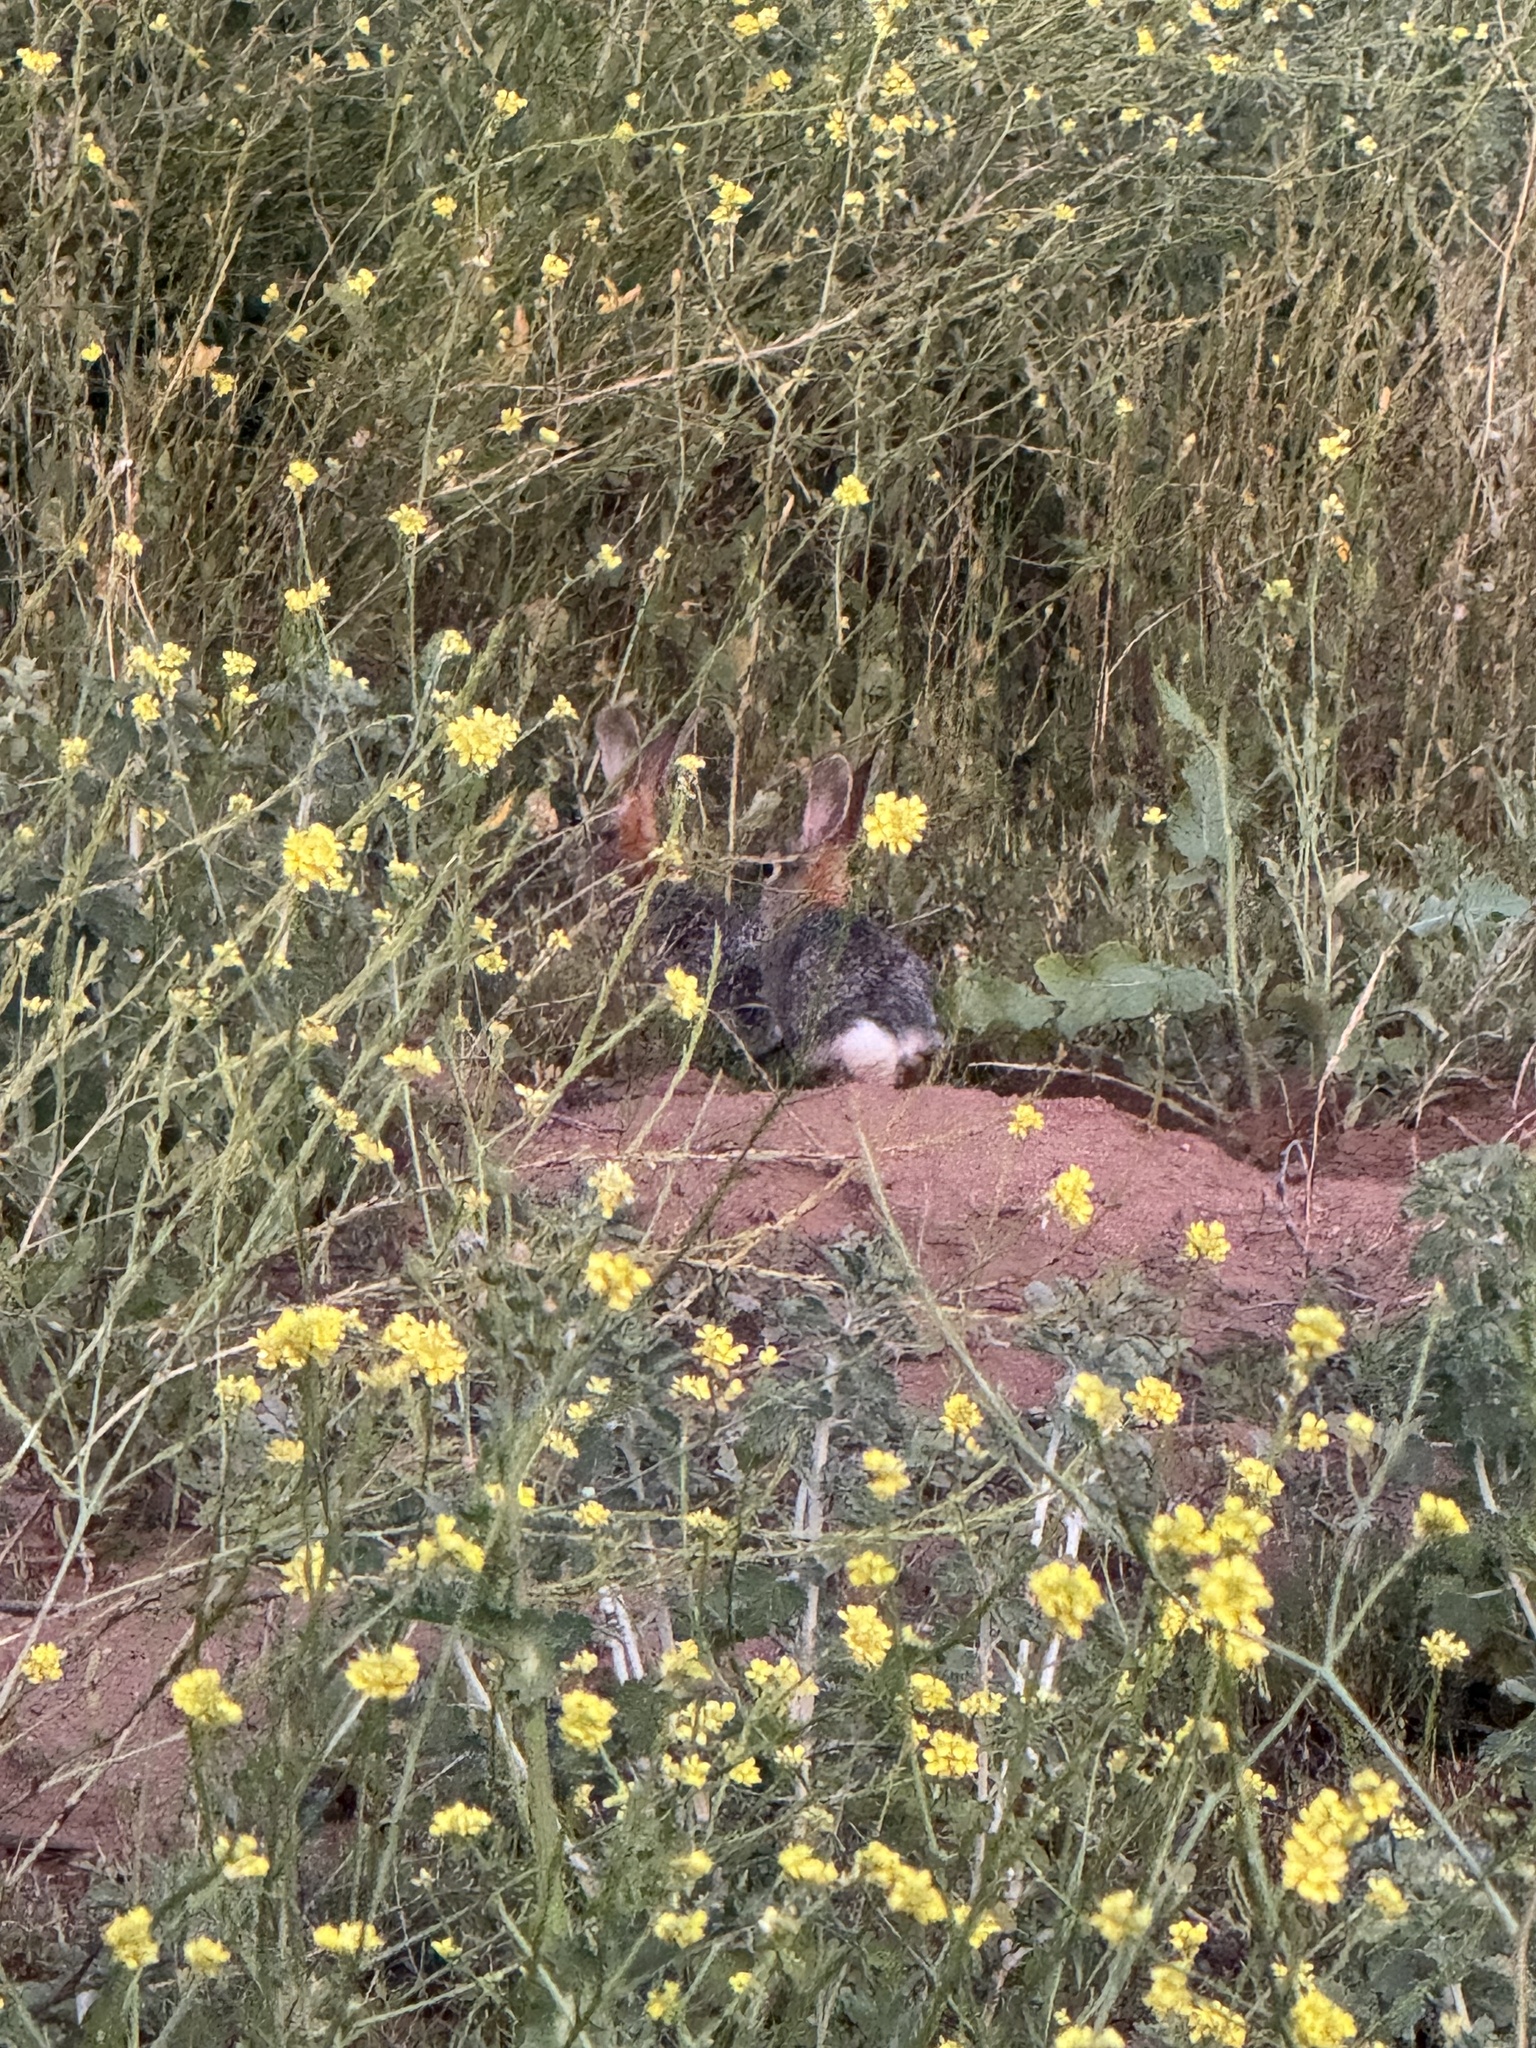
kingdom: Animalia
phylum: Chordata
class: Mammalia
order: Lagomorpha
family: Leporidae
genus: Sylvilagus
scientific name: Sylvilagus audubonii
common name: Desert cottontail
